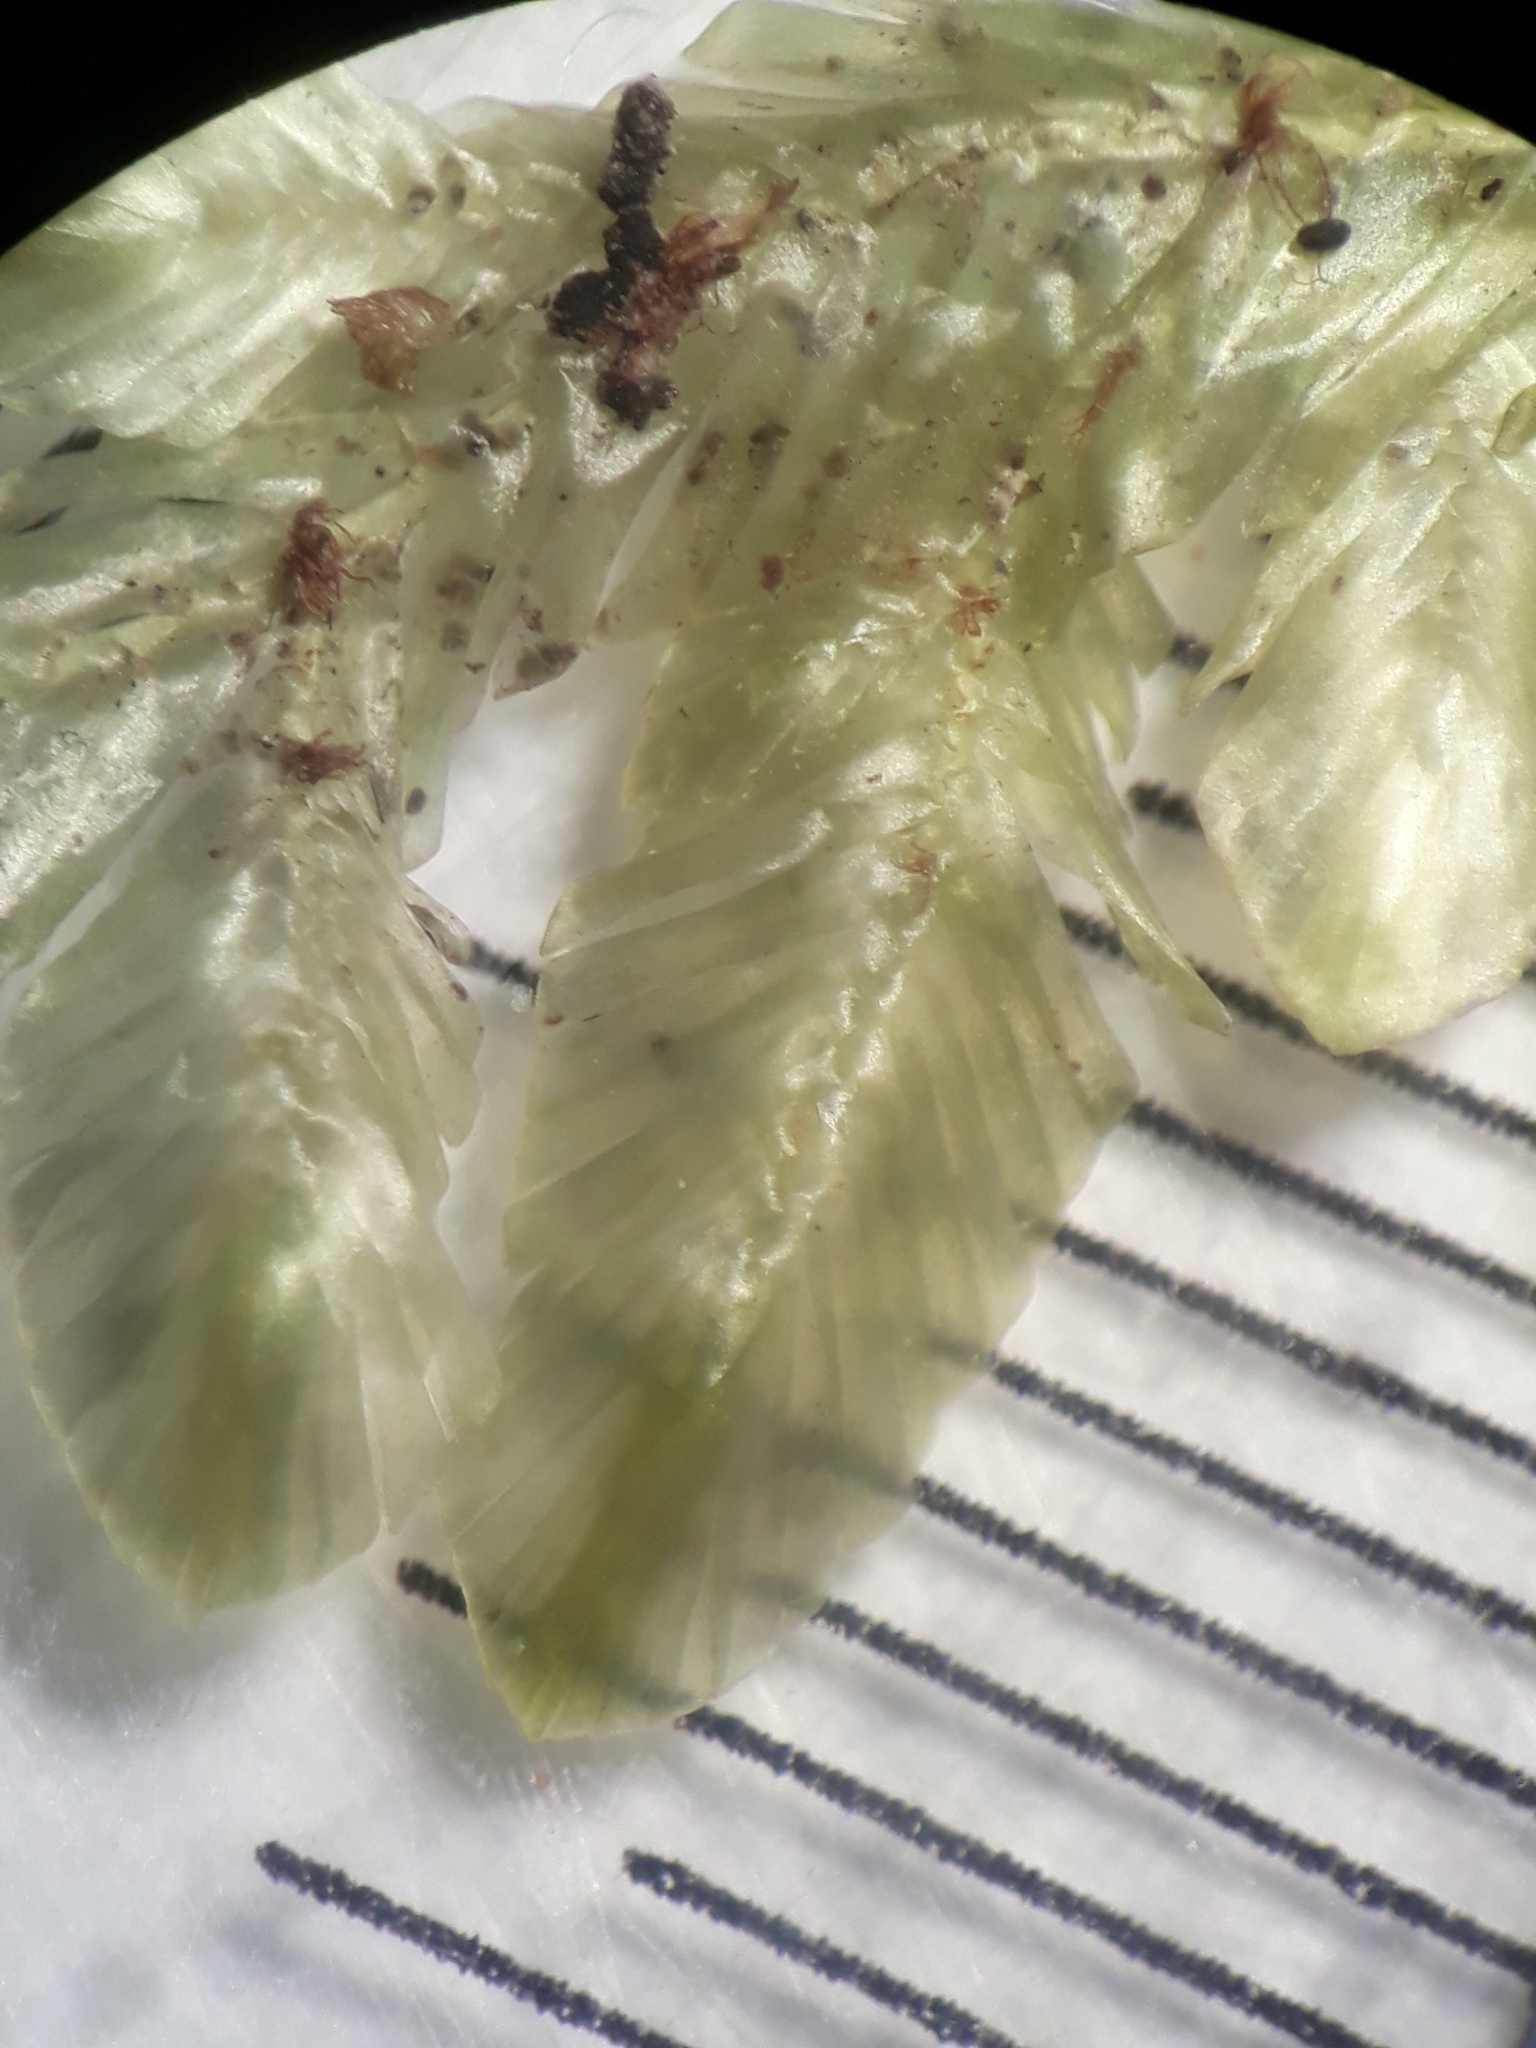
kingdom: Plantae
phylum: Bryophyta
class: Bryopsida
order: Ptychomniales
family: Orthorrhynchiaceae
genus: Orthorrhynchium
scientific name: Orthorrhynchium elegans
